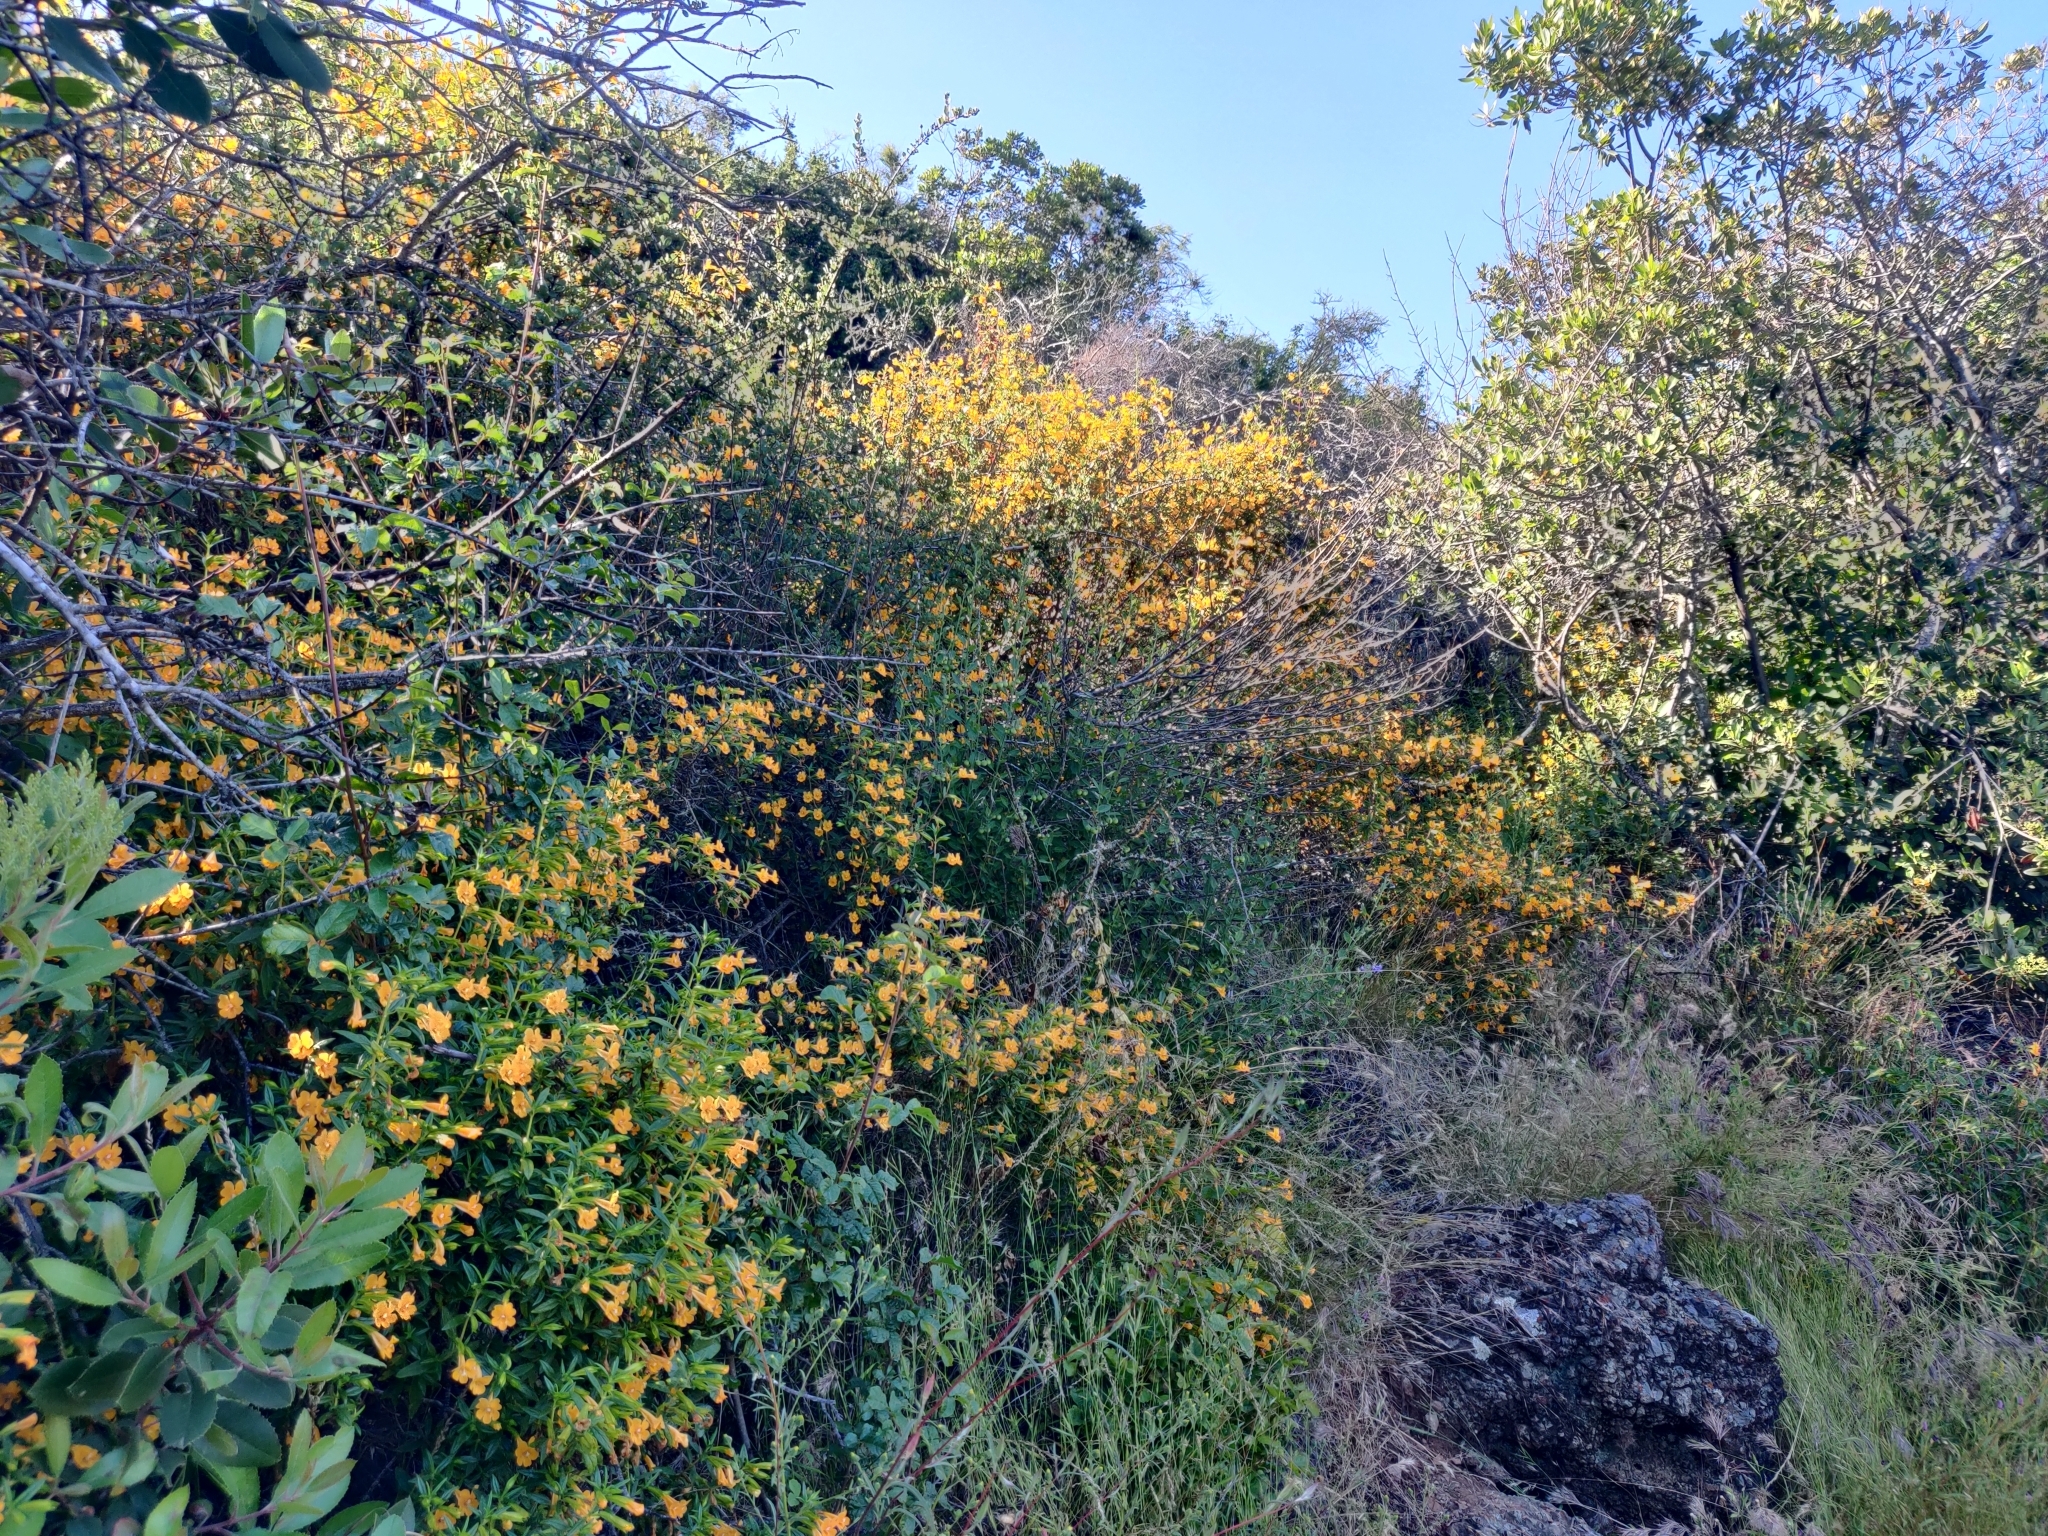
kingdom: Plantae
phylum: Tracheophyta
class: Magnoliopsida
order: Lamiales
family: Phrymaceae
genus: Diplacus
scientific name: Diplacus aurantiacus
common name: Bush monkey-flower
